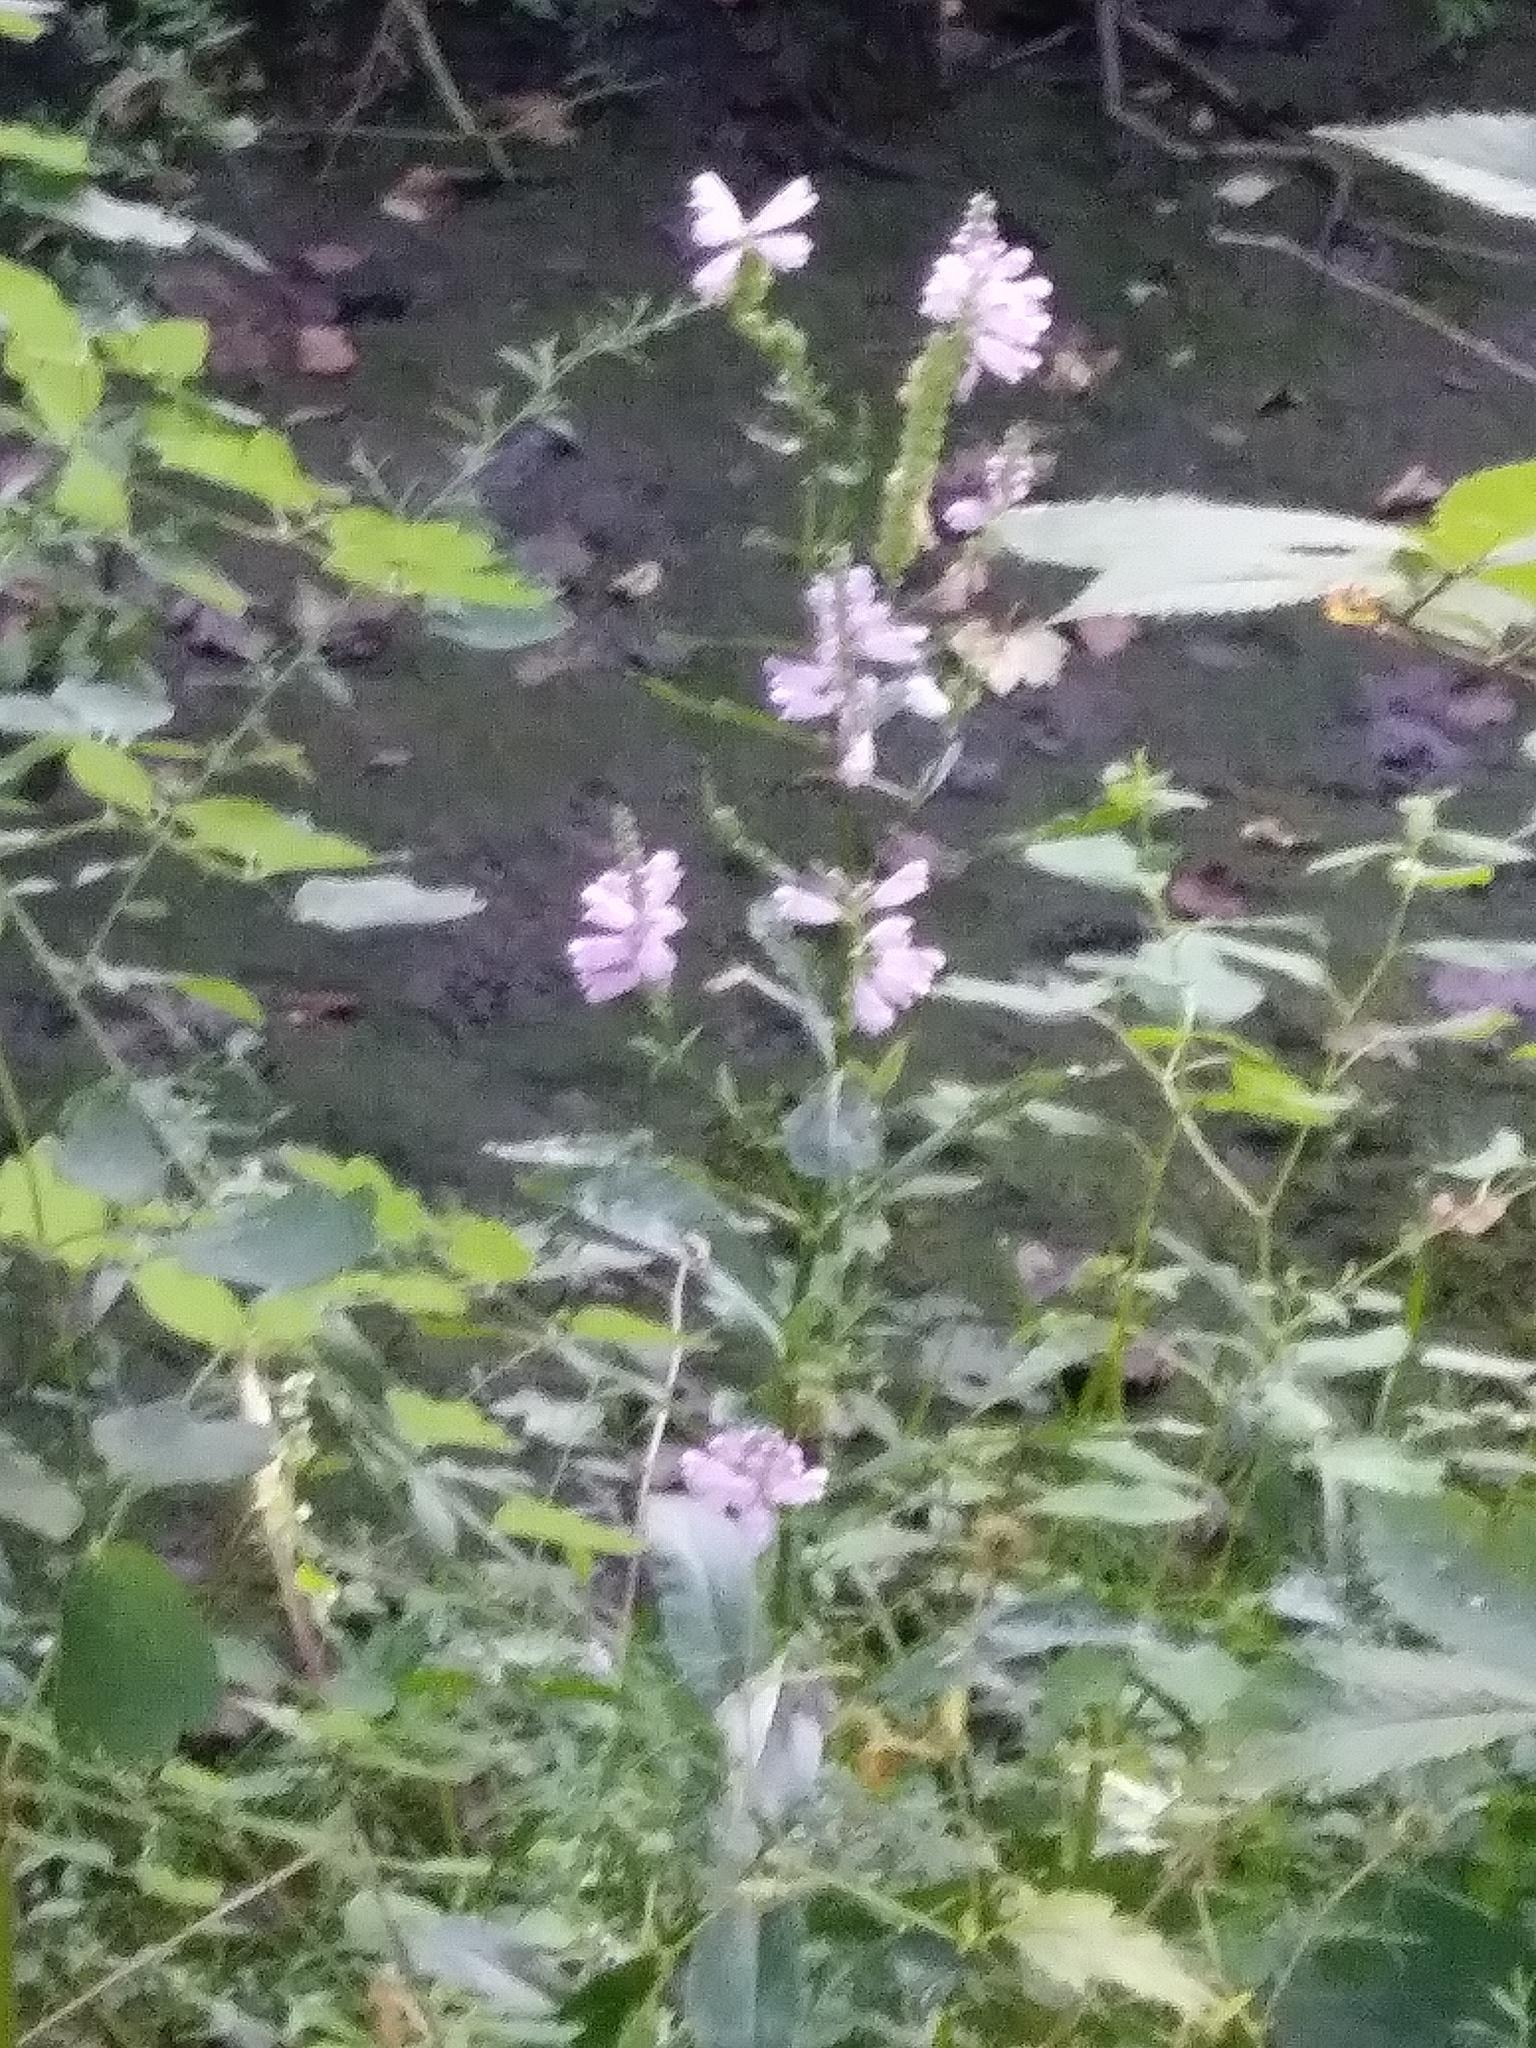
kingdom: Plantae
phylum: Tracheophyta
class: Magnoliopsida
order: Lamiales
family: Lamiaceae
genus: Physostegia
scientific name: Physostegia virginiana
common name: Obedient-plant
